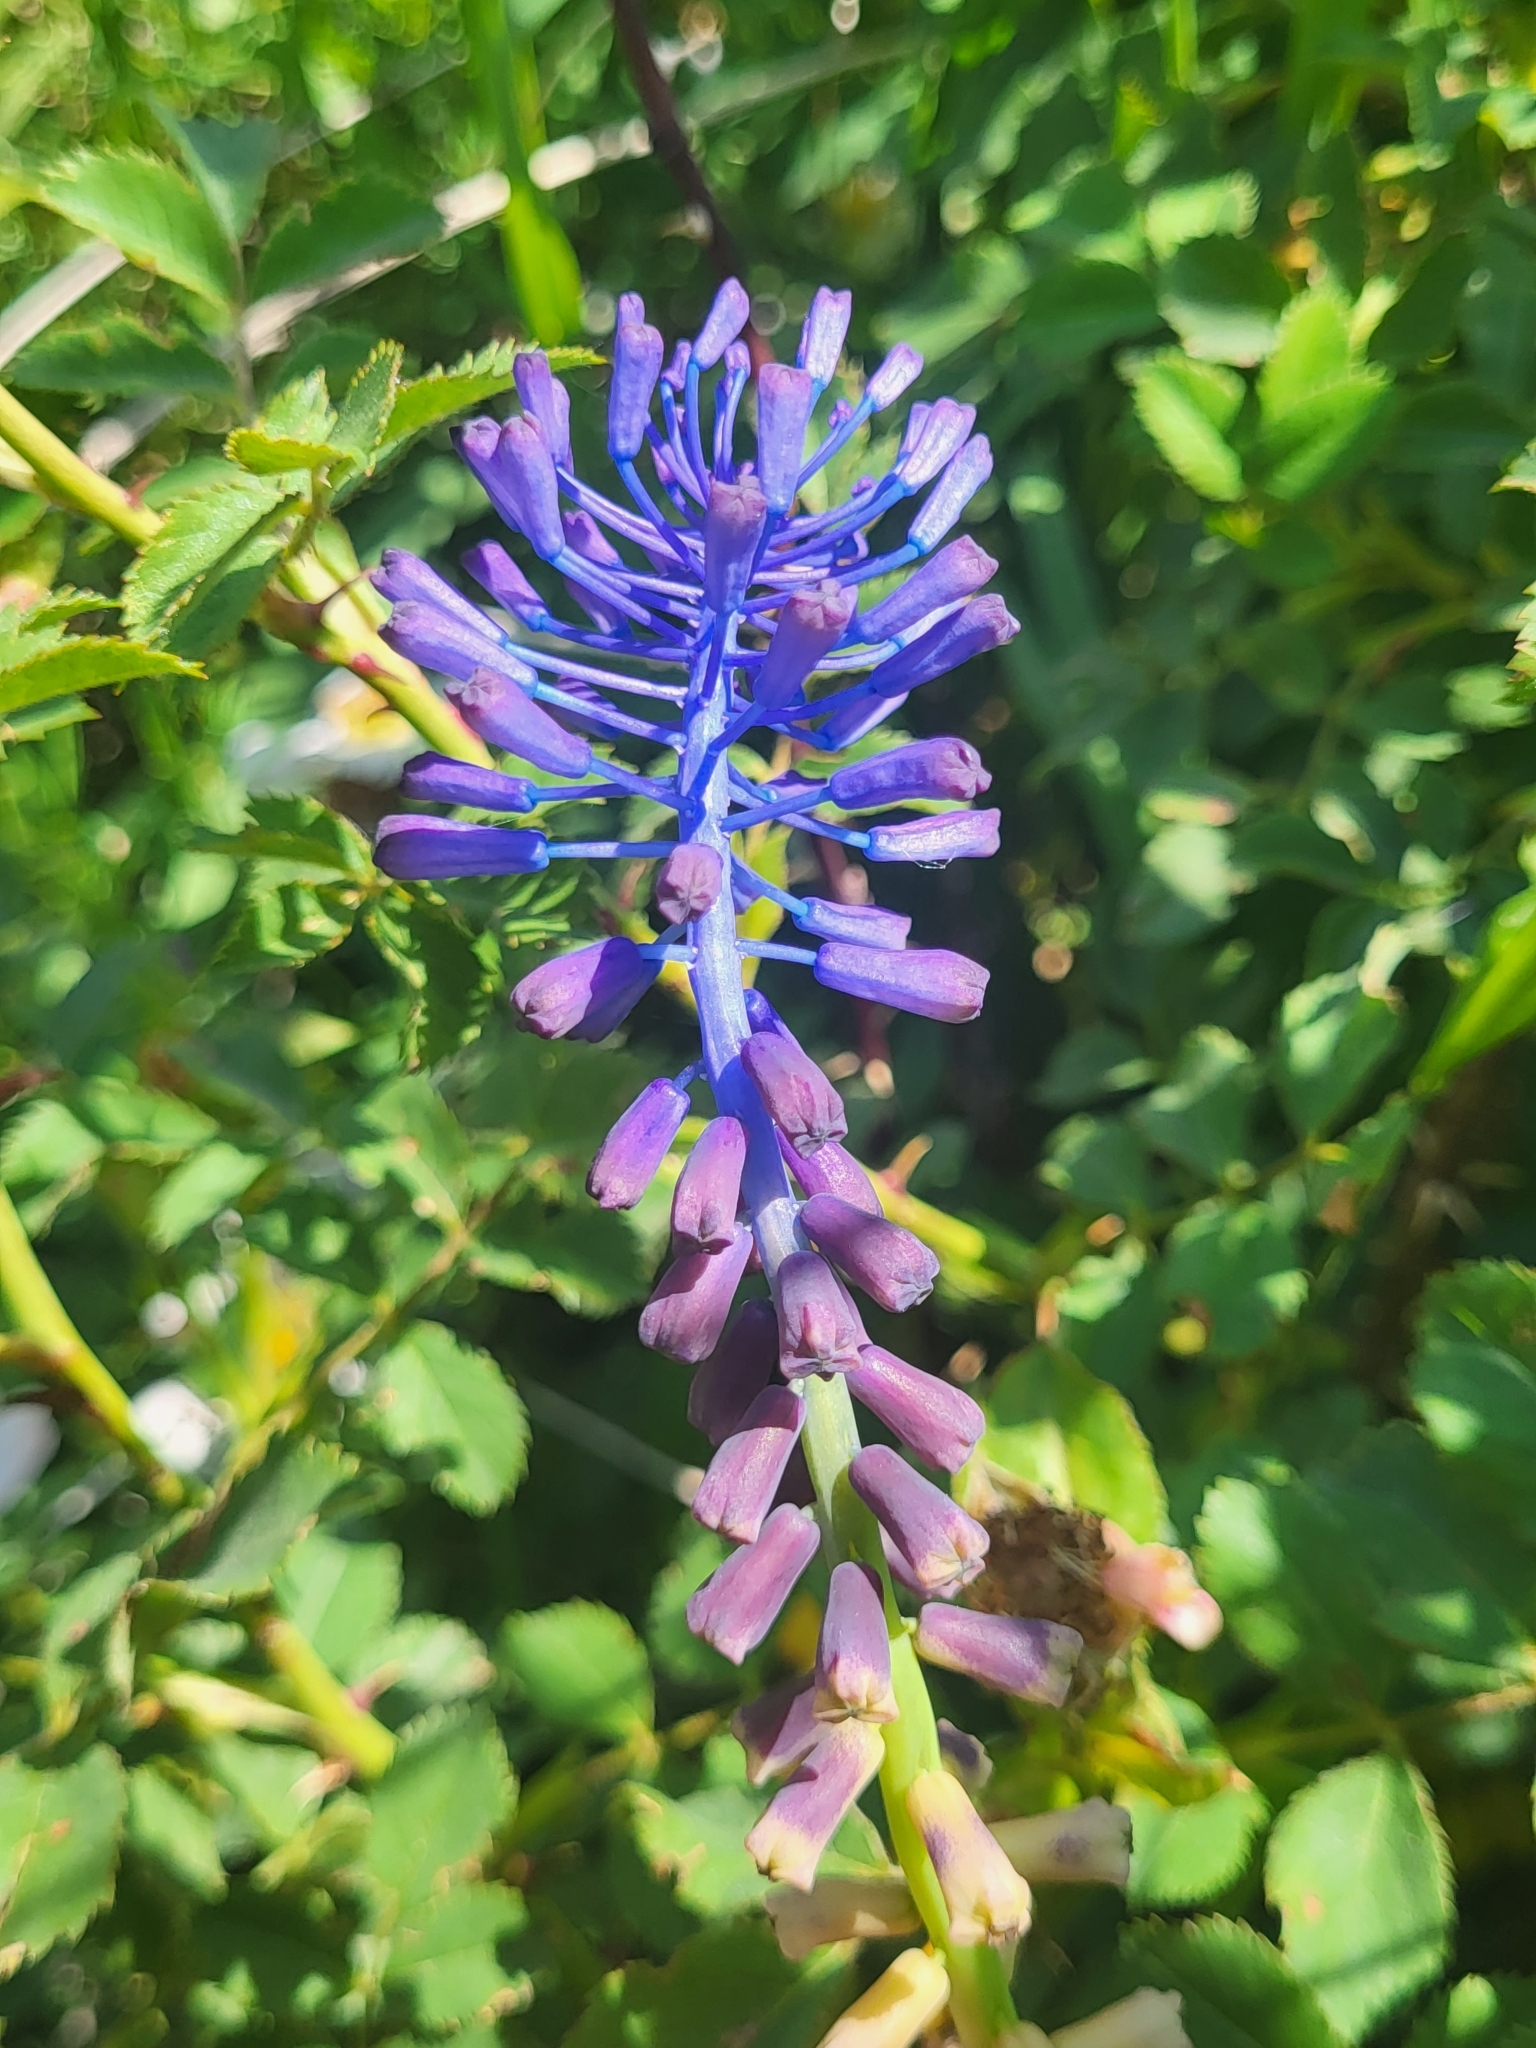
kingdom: Plantae
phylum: Tracheophyta
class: Liliopsida
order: Asparagales
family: Asparagaceae
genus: Muscari
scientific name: Muscari tenuiflorum
